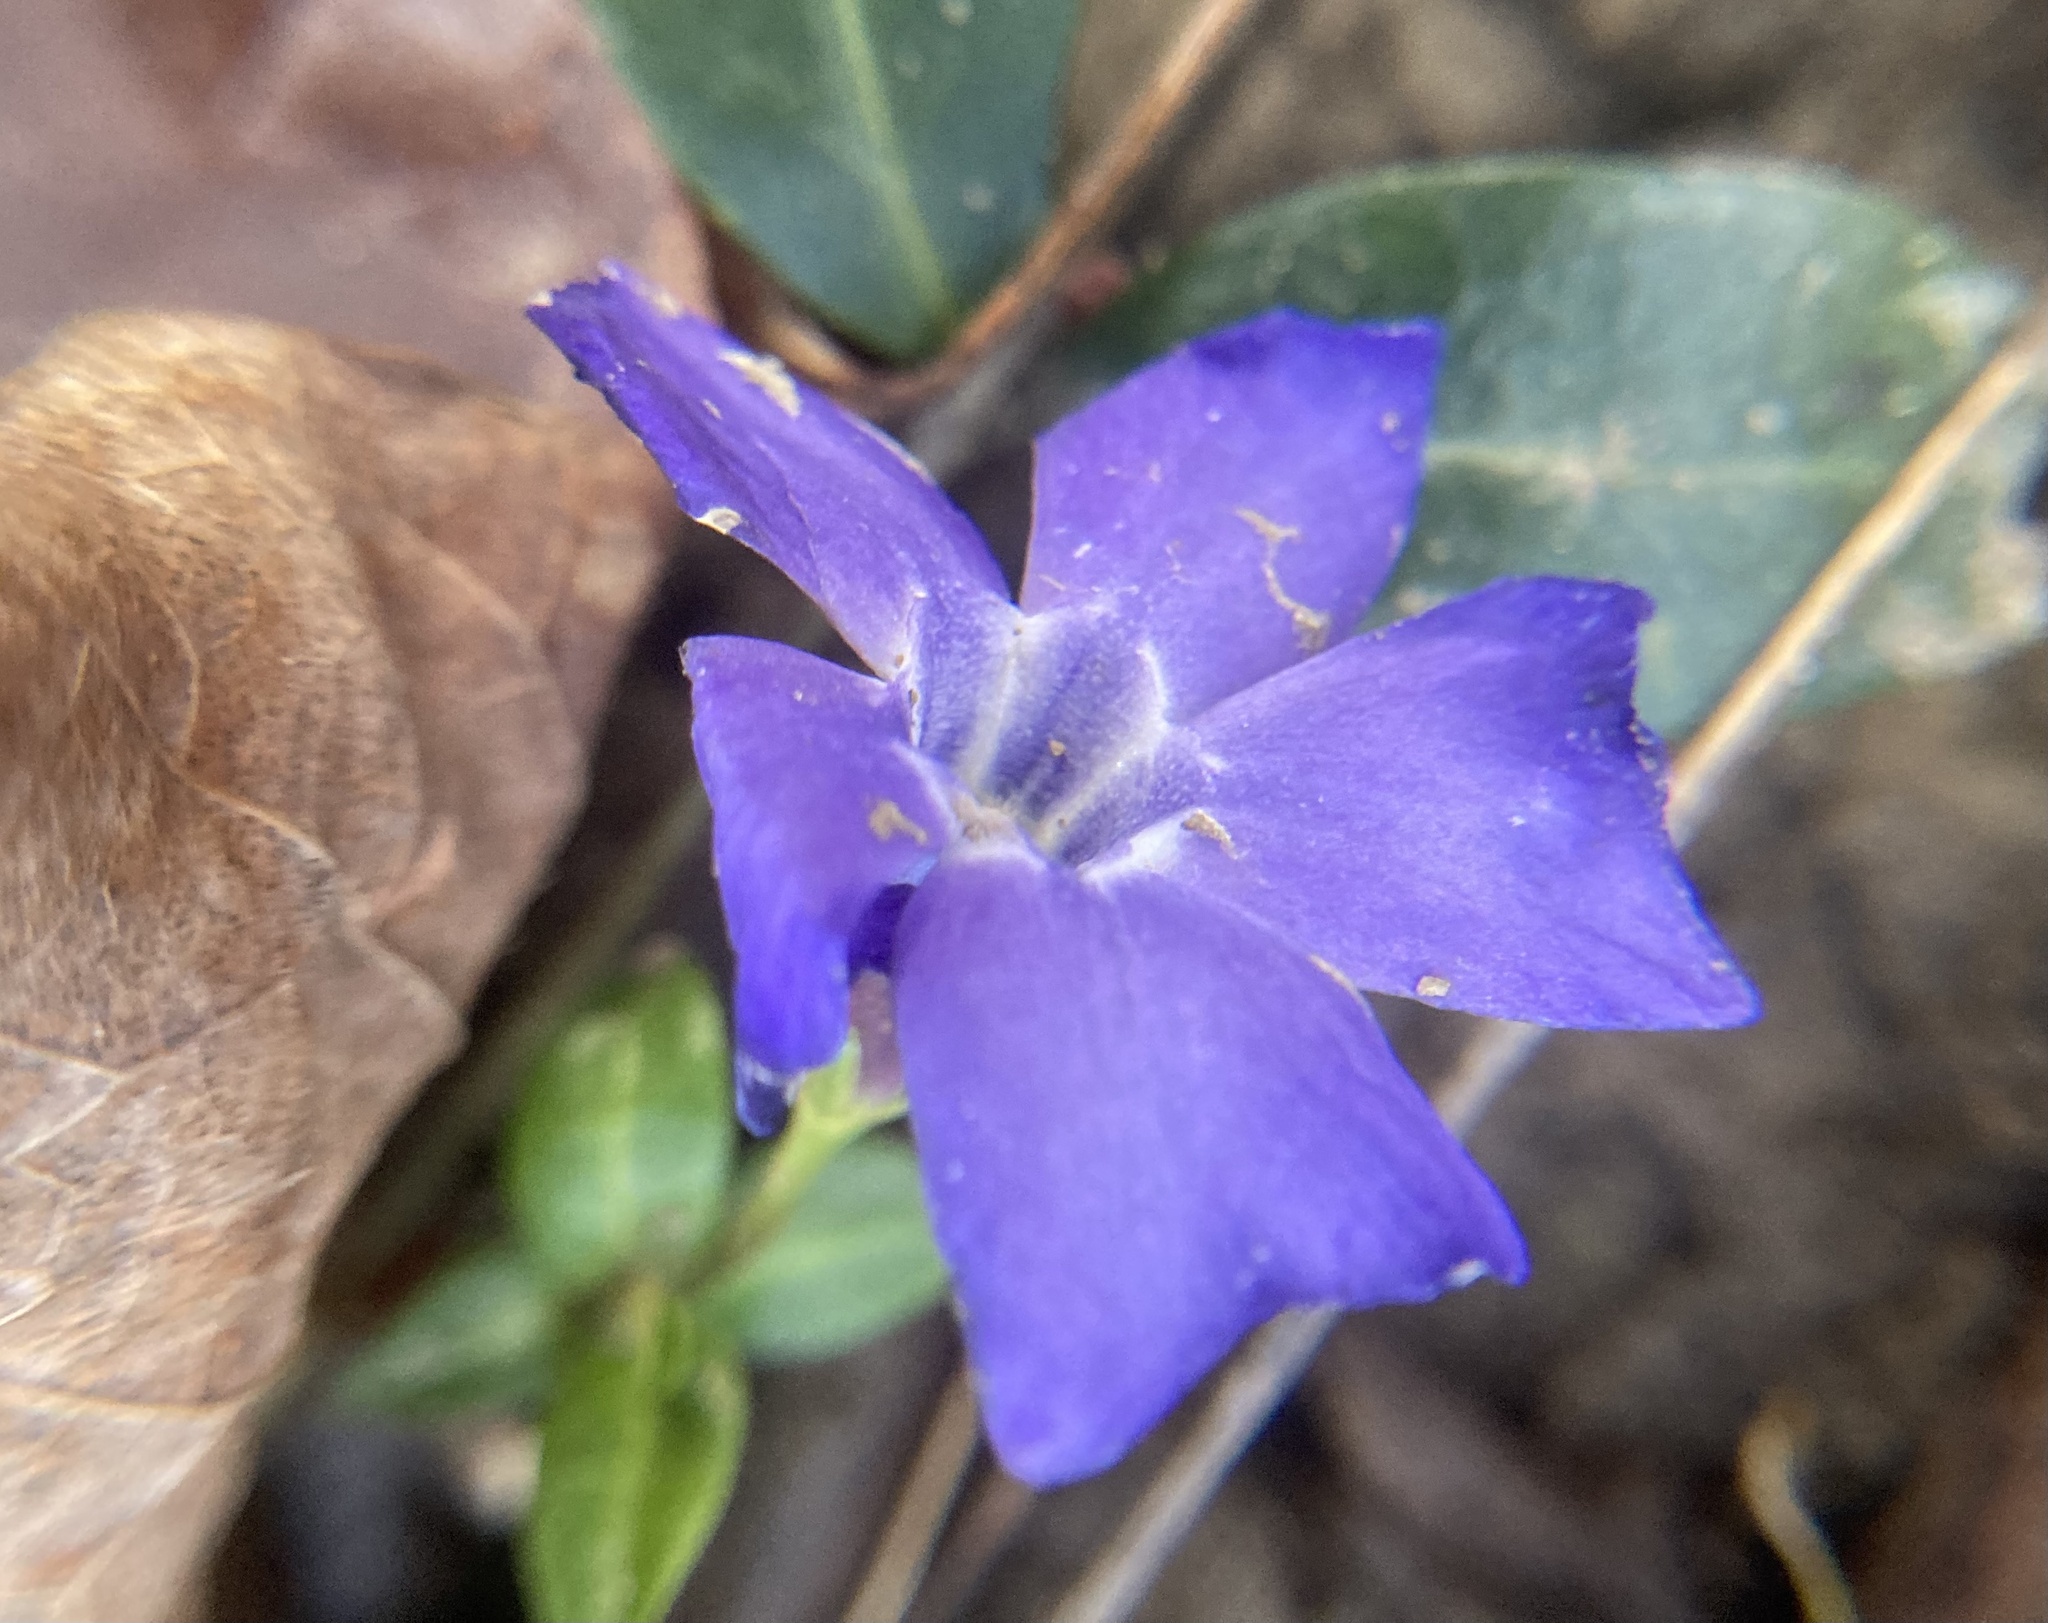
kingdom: Plantae
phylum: Tracheophyta
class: Magnoliopsida
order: Gentianales
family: Apocynaceae
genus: Vinca
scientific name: Vinca minor
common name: Lesser periwinkle
